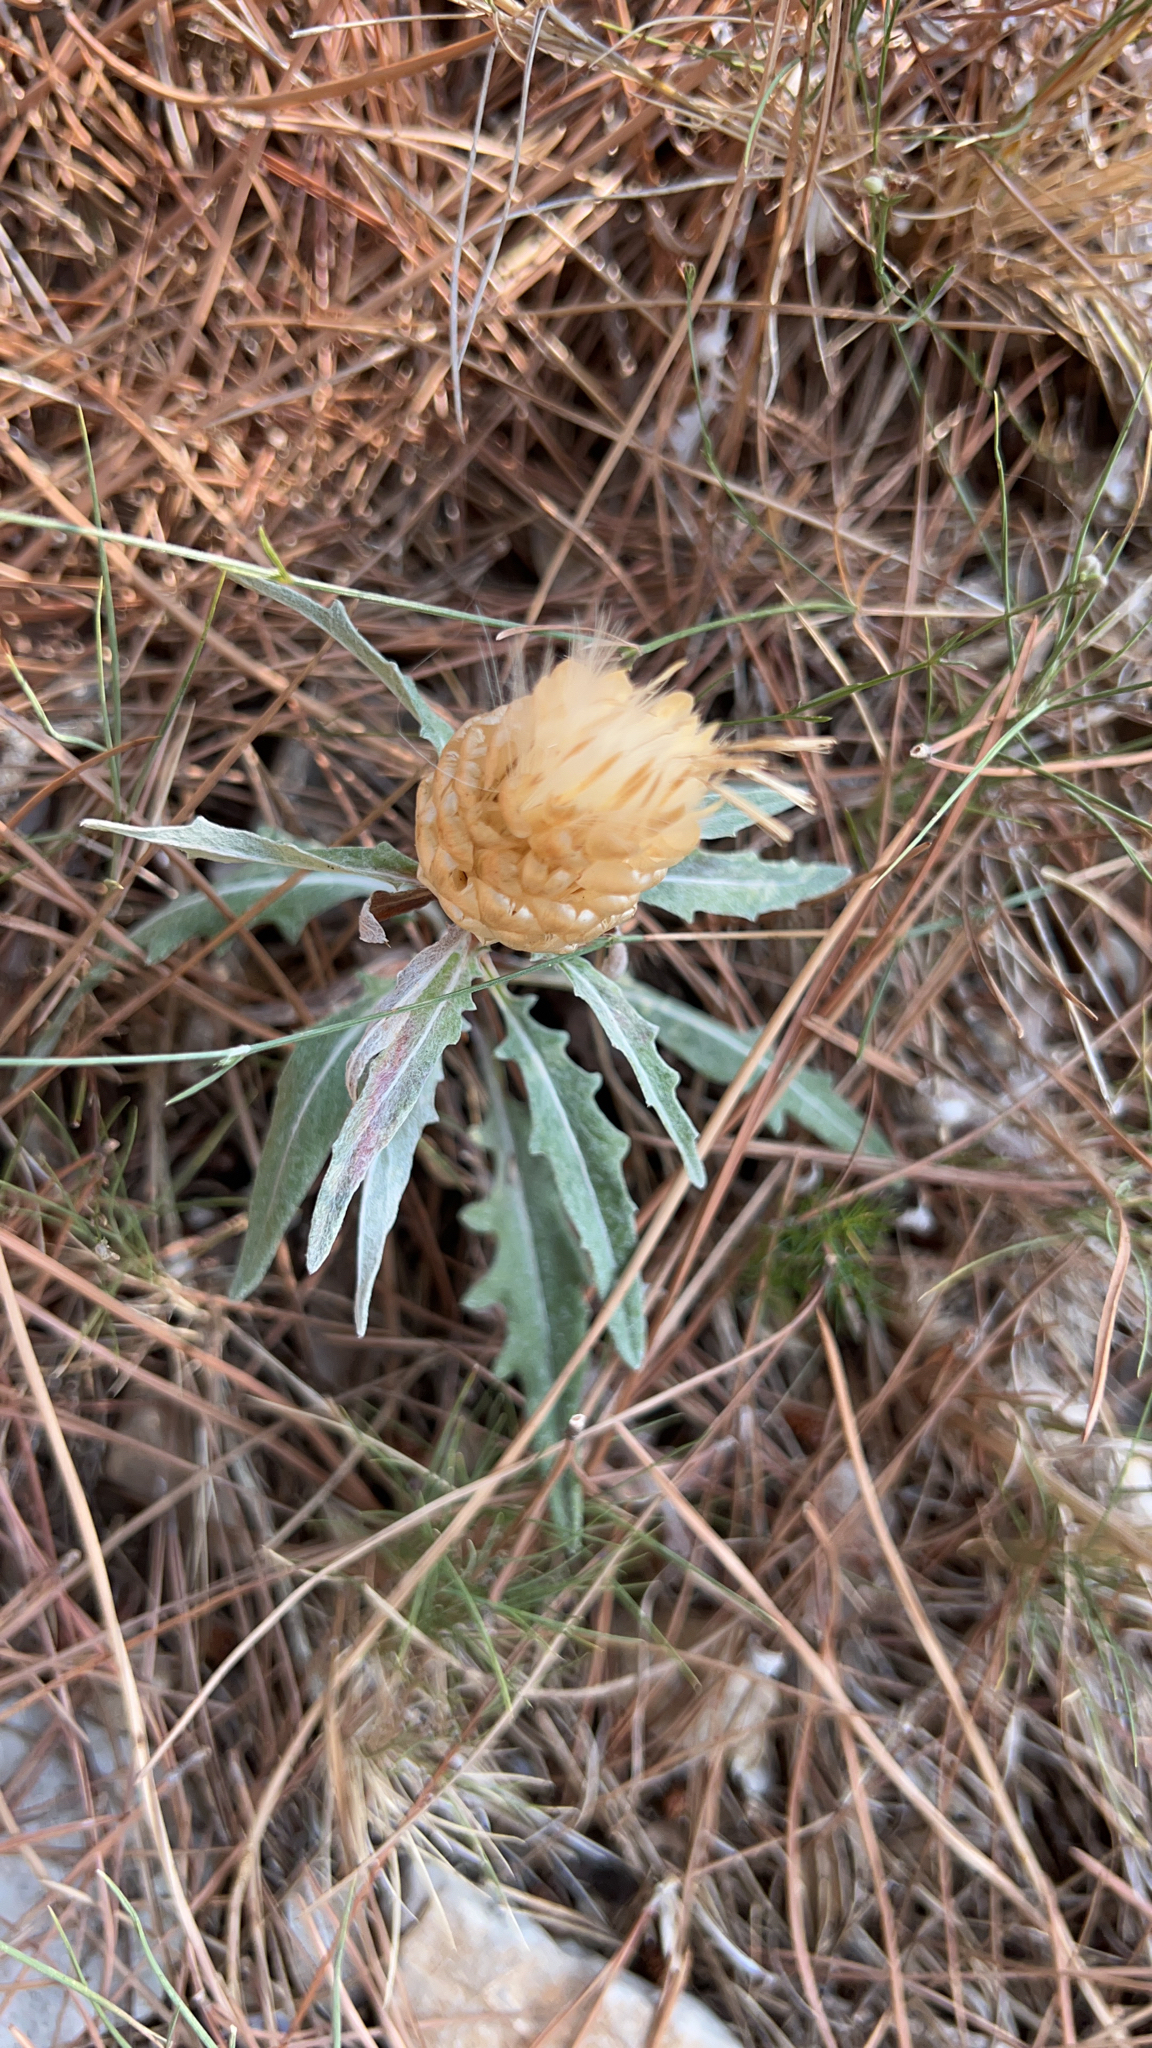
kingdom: Plantae
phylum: Tracheophyta
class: Magnoliopsida
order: Asterales
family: Asteraceae
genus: Leuzea
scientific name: Leuzea conifera
